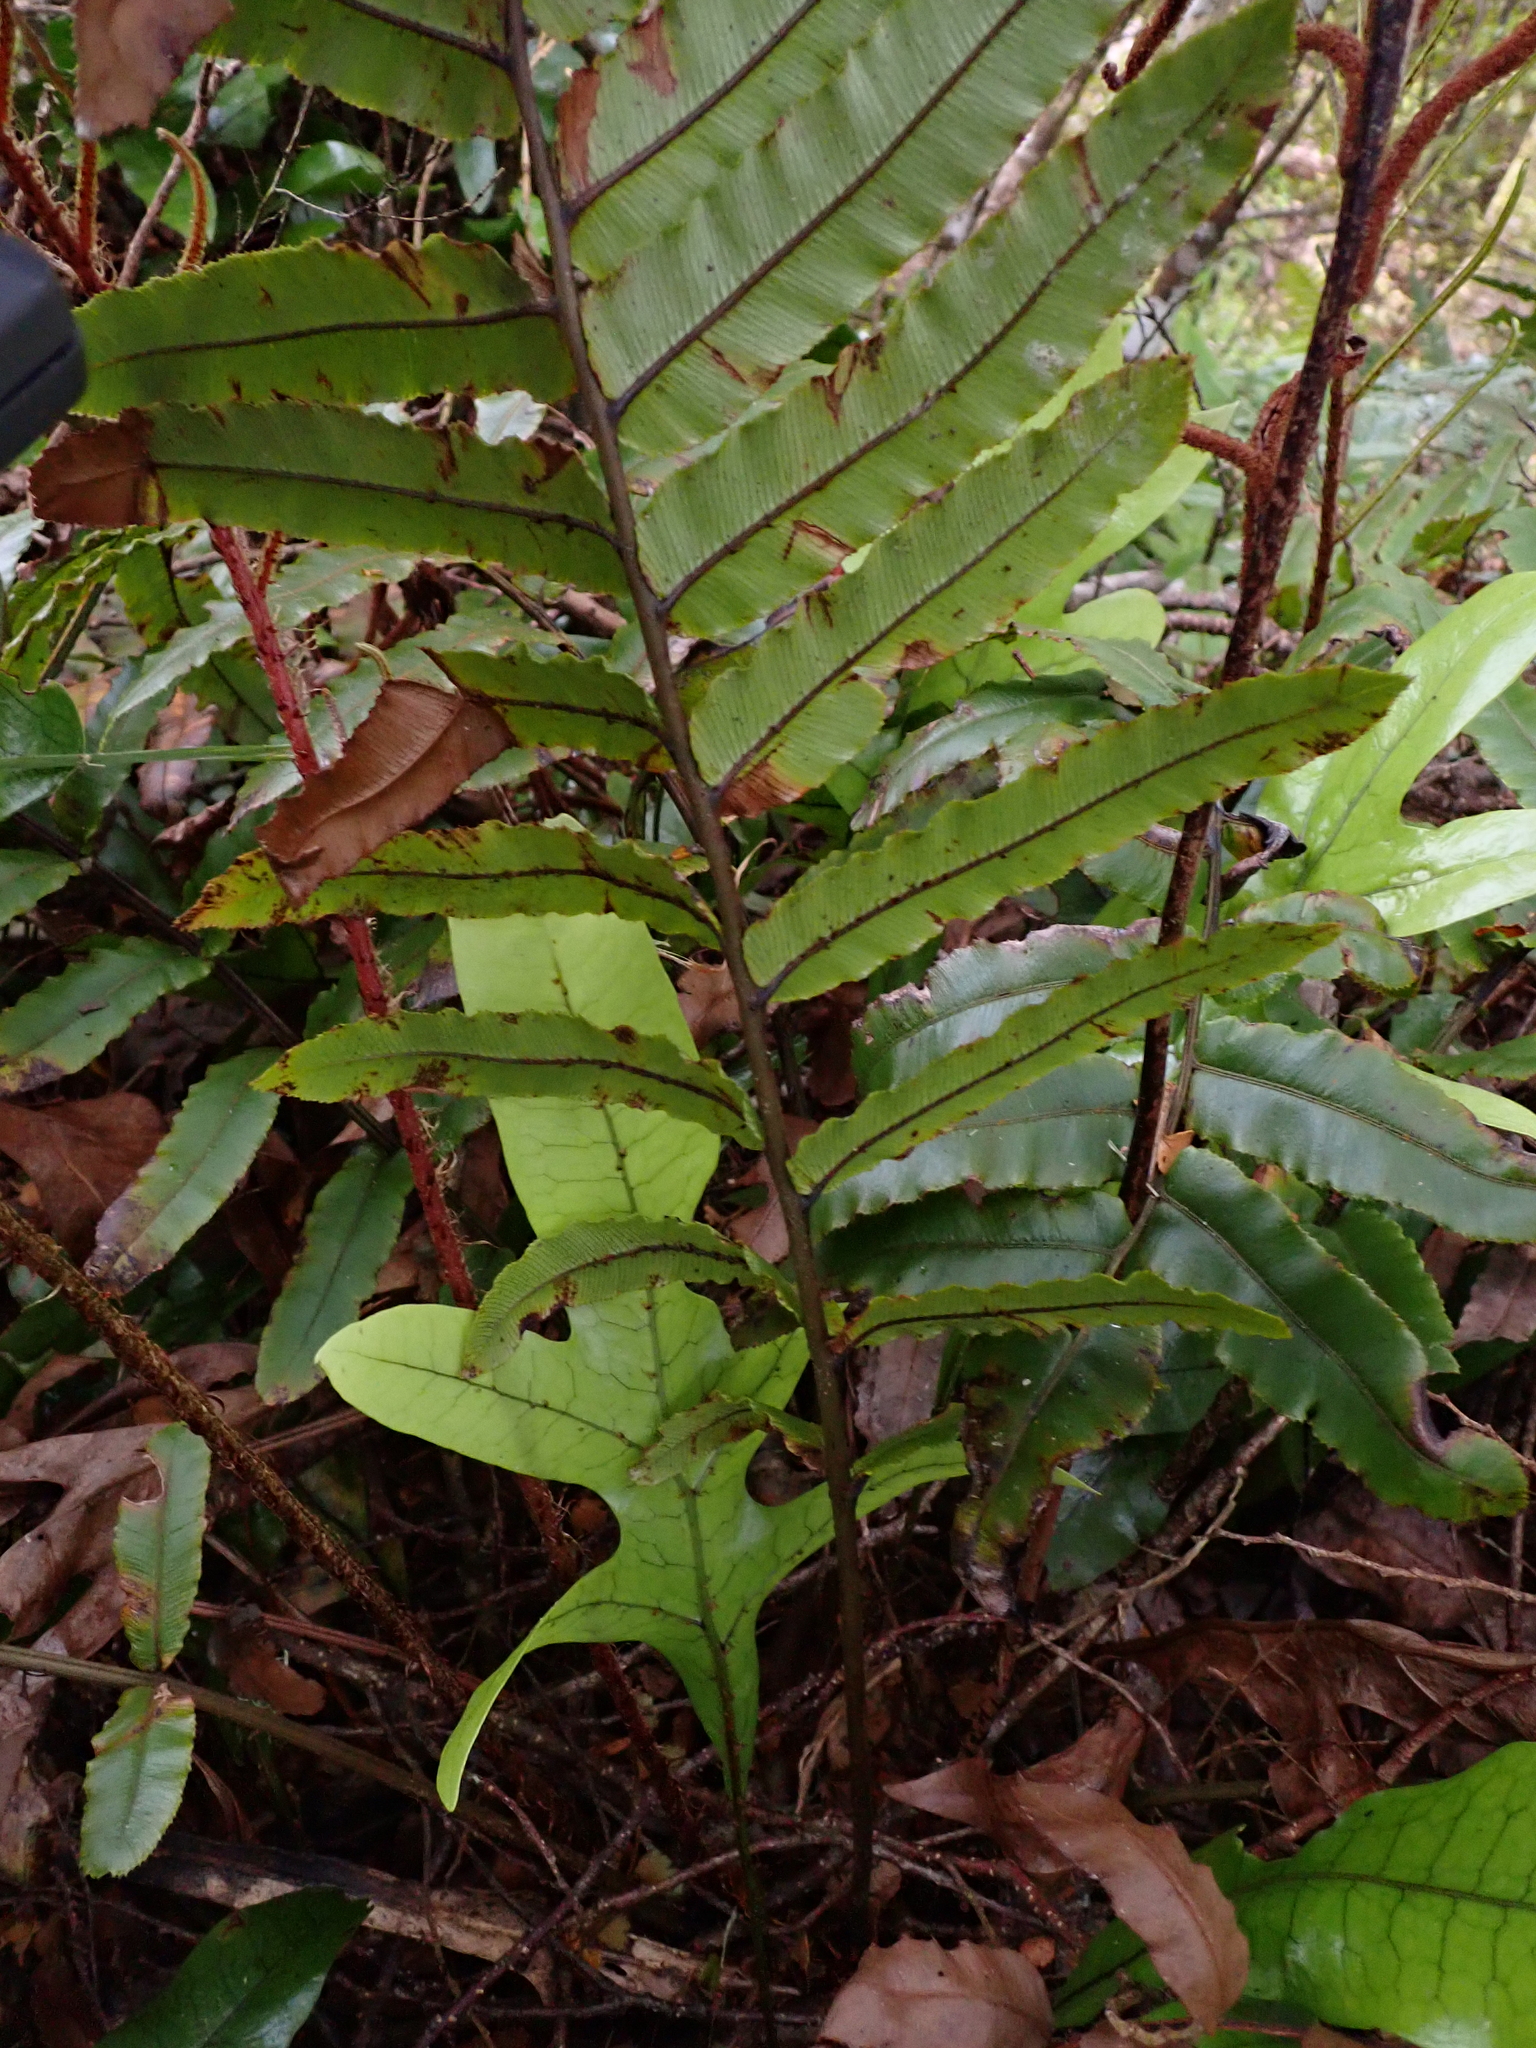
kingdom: Plantae
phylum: Tracheophyta
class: Polypodiopsida
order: Polypodiales
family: Blechnaceae
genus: Parablechnum
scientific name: Parablechnum procerum
